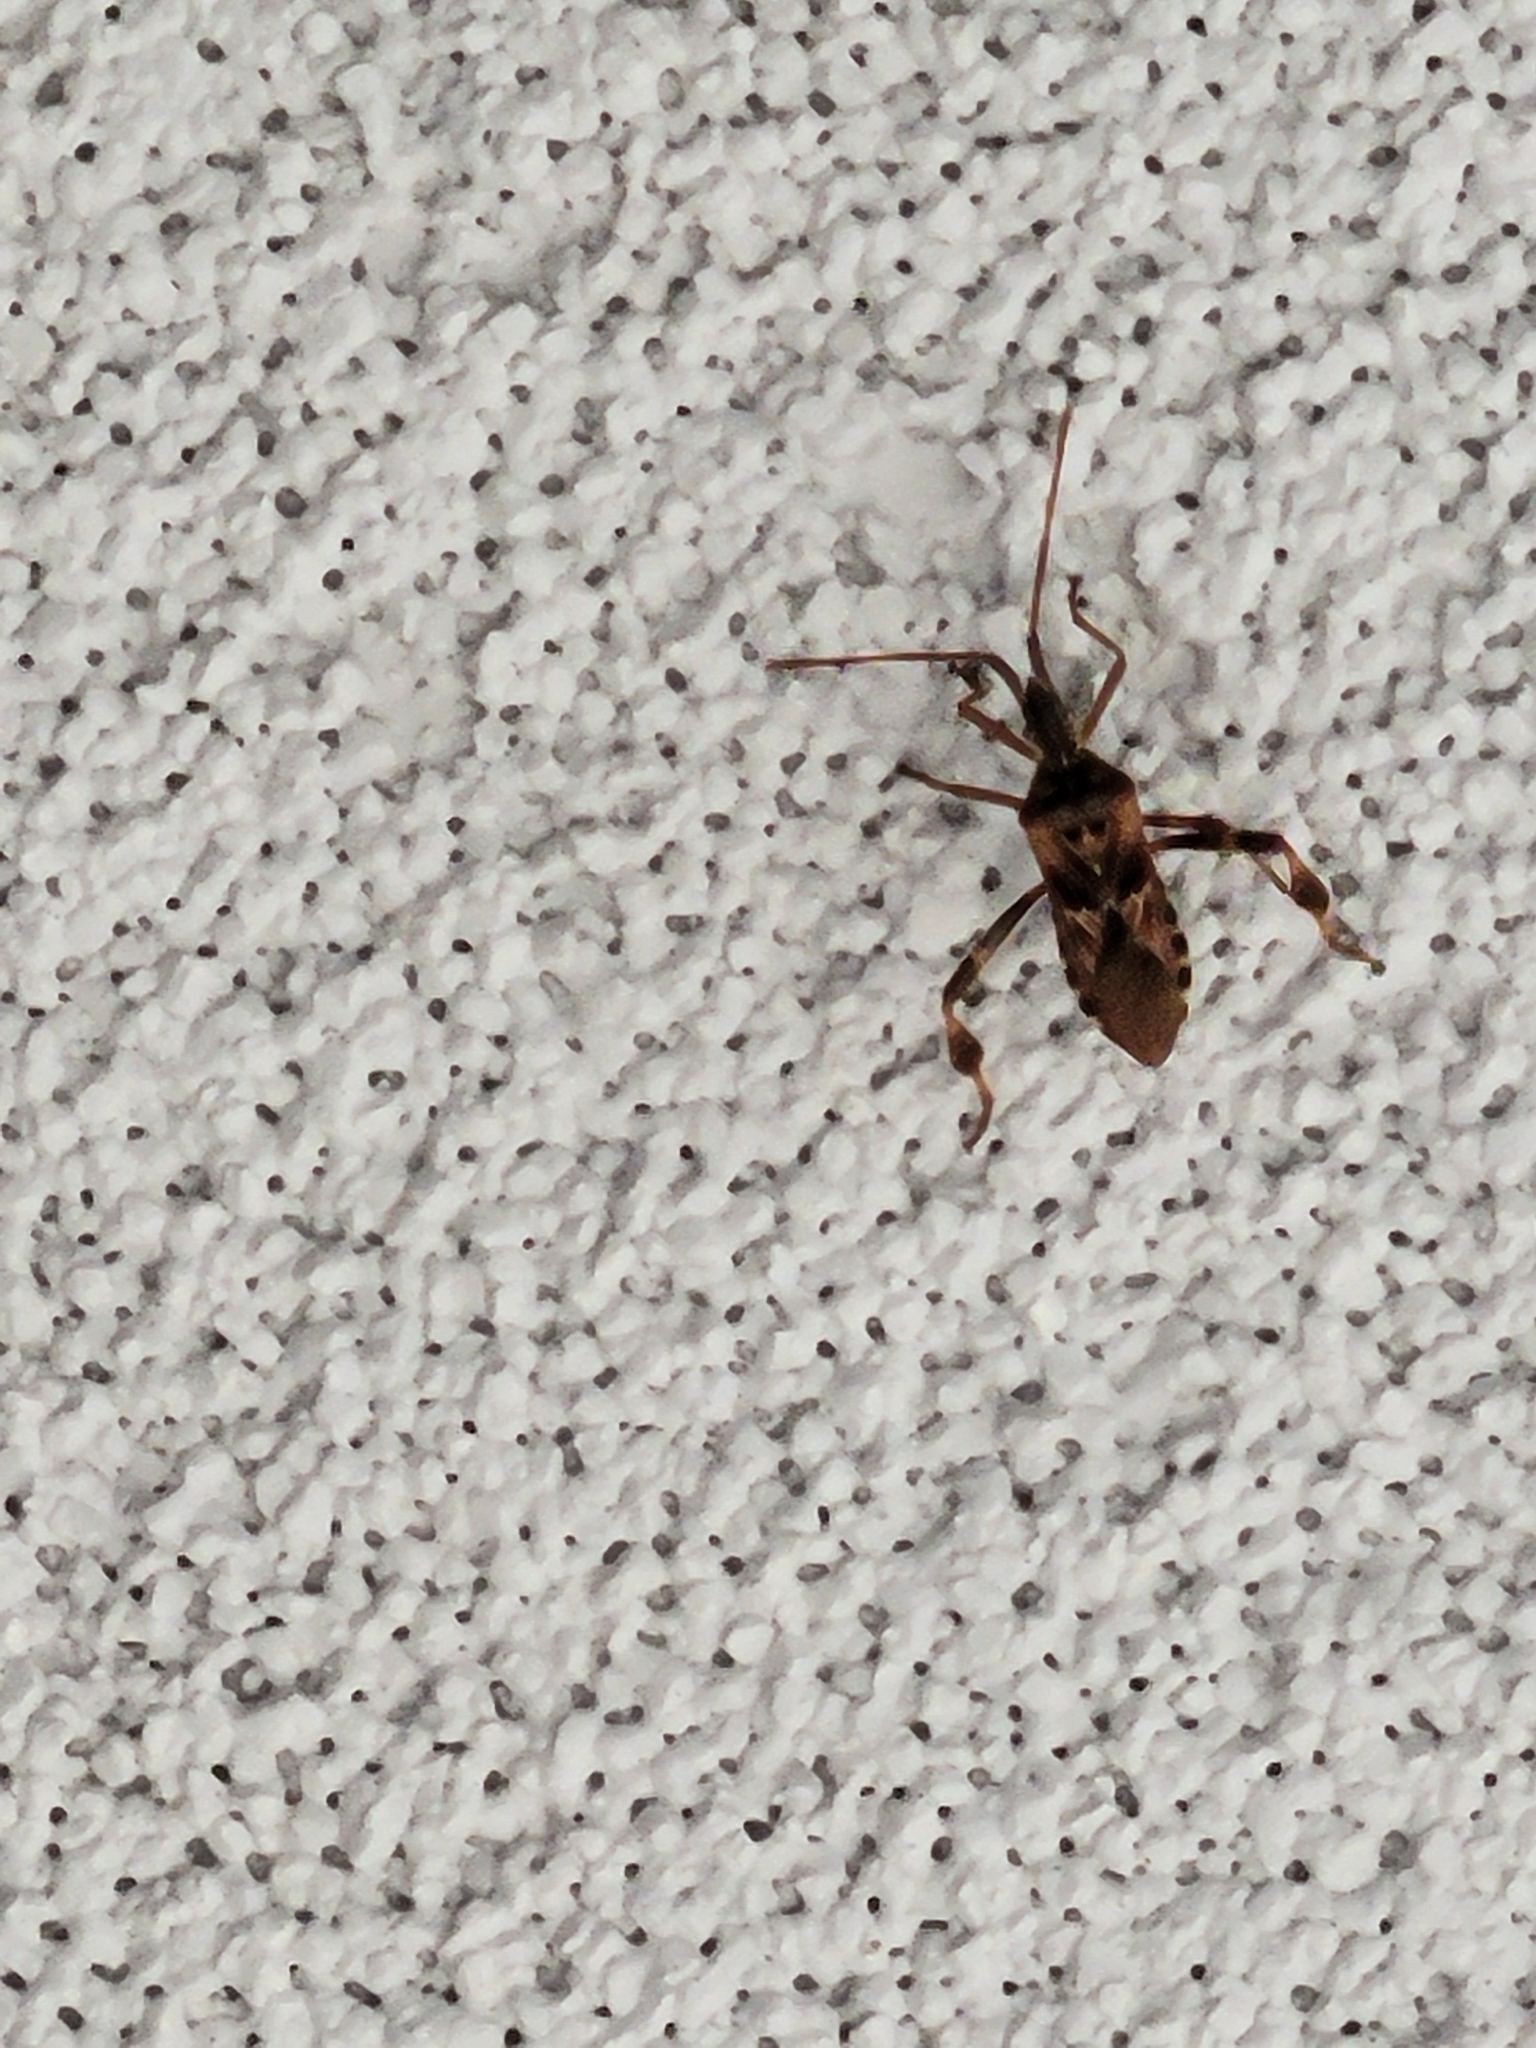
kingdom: Animalia
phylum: Arthropoda
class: Insecta
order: Hemiptera
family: Coreidae
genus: Leptoglossus
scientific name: Leptoglossus occidentalis
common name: Western conifer-seed bug
